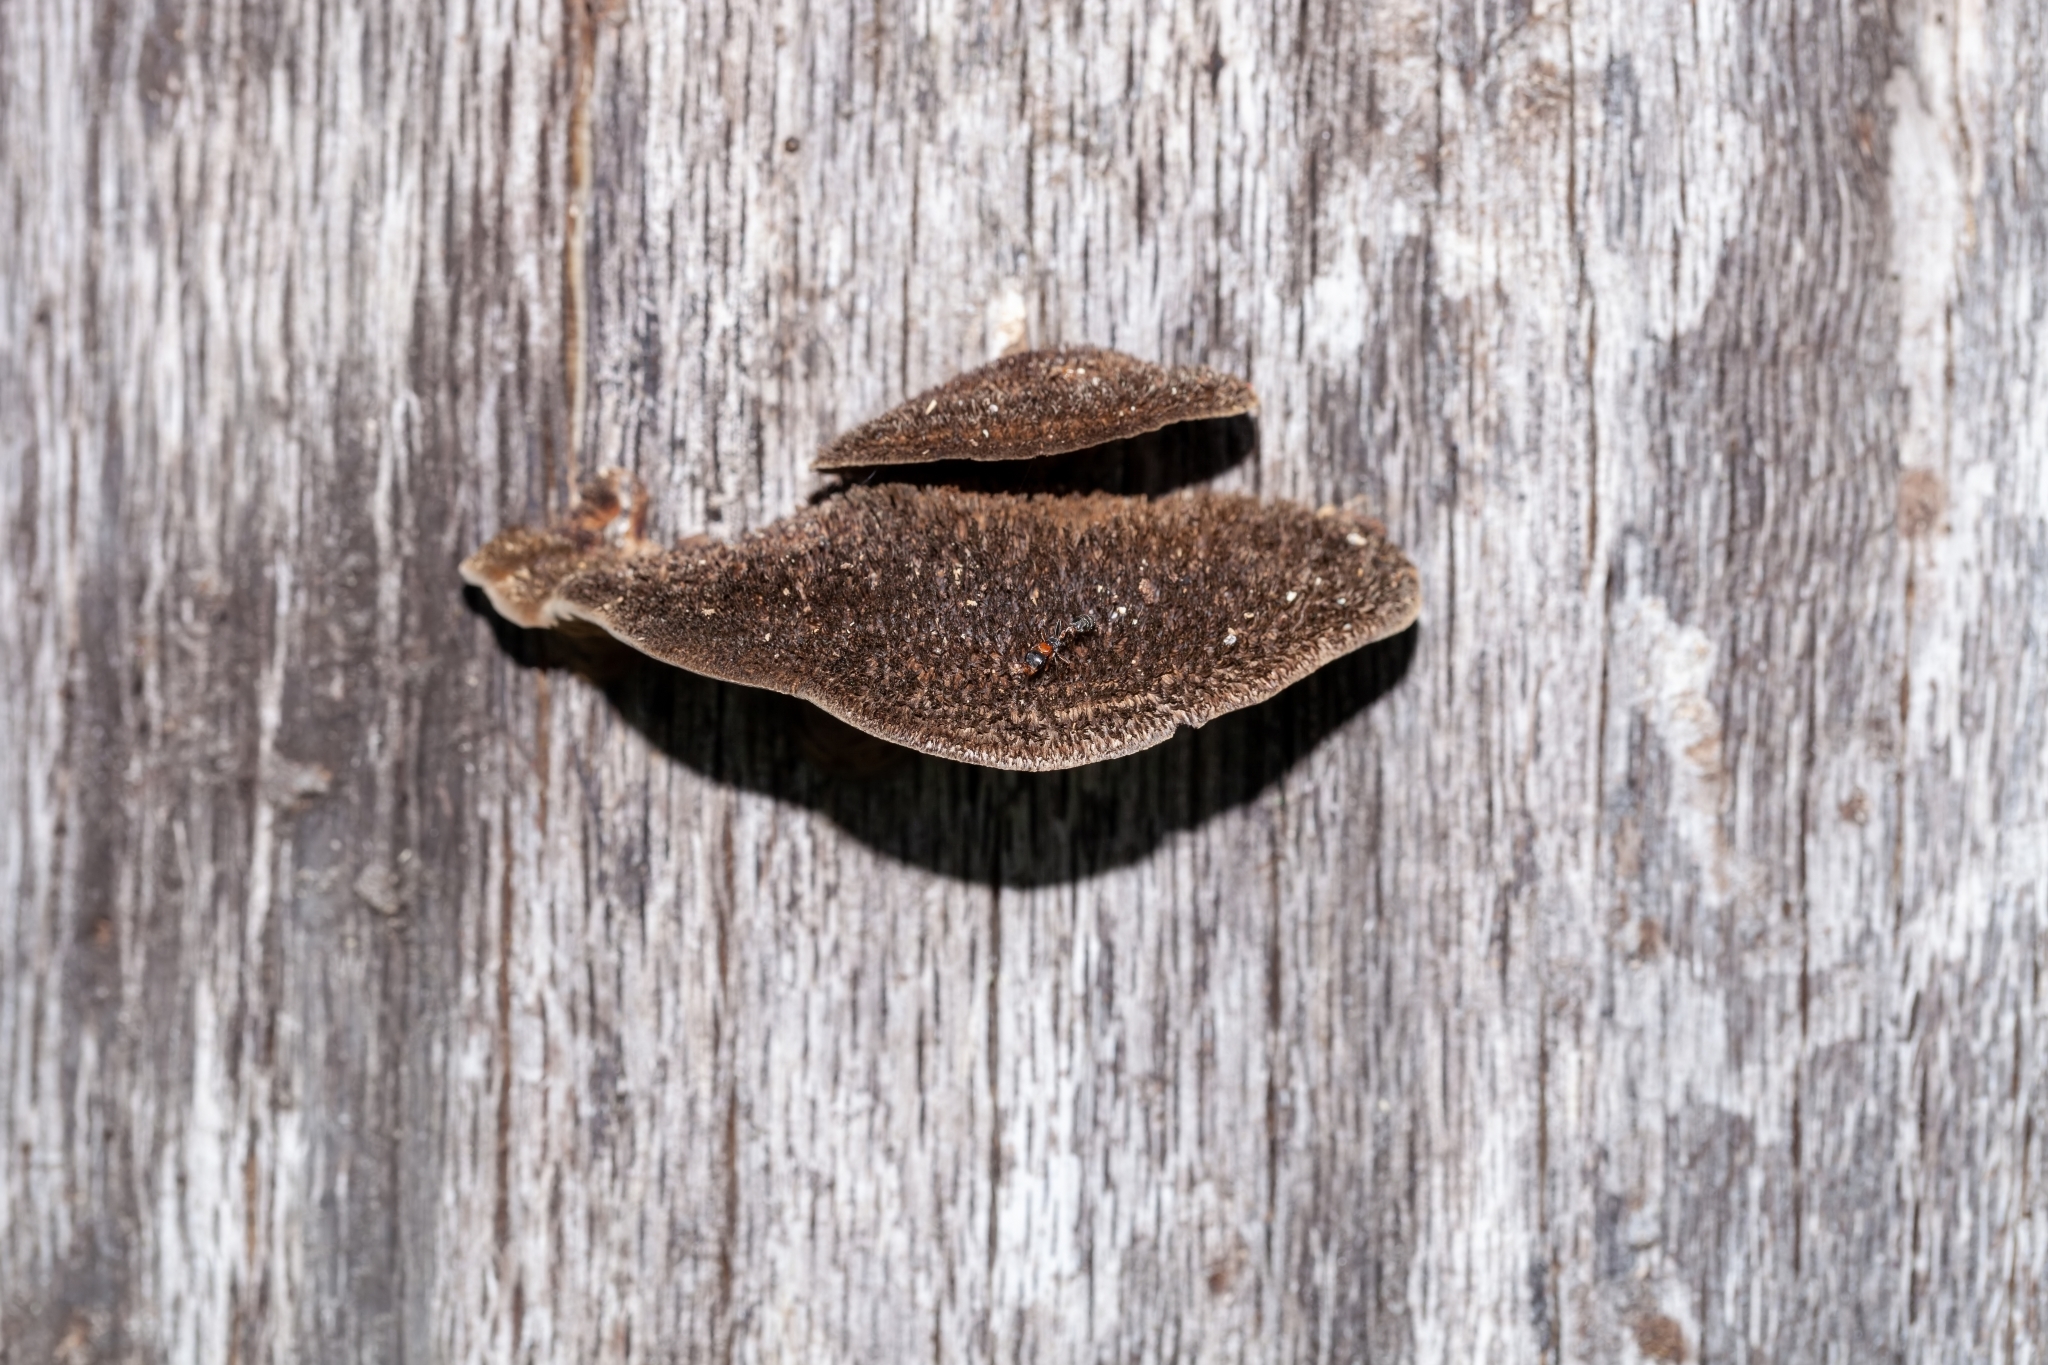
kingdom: Fungi
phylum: Basidiomycota
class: Agaricomycetes
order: Polyporales
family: Cerrenaceae
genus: Cerrena
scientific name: Cerrena hydnoides
